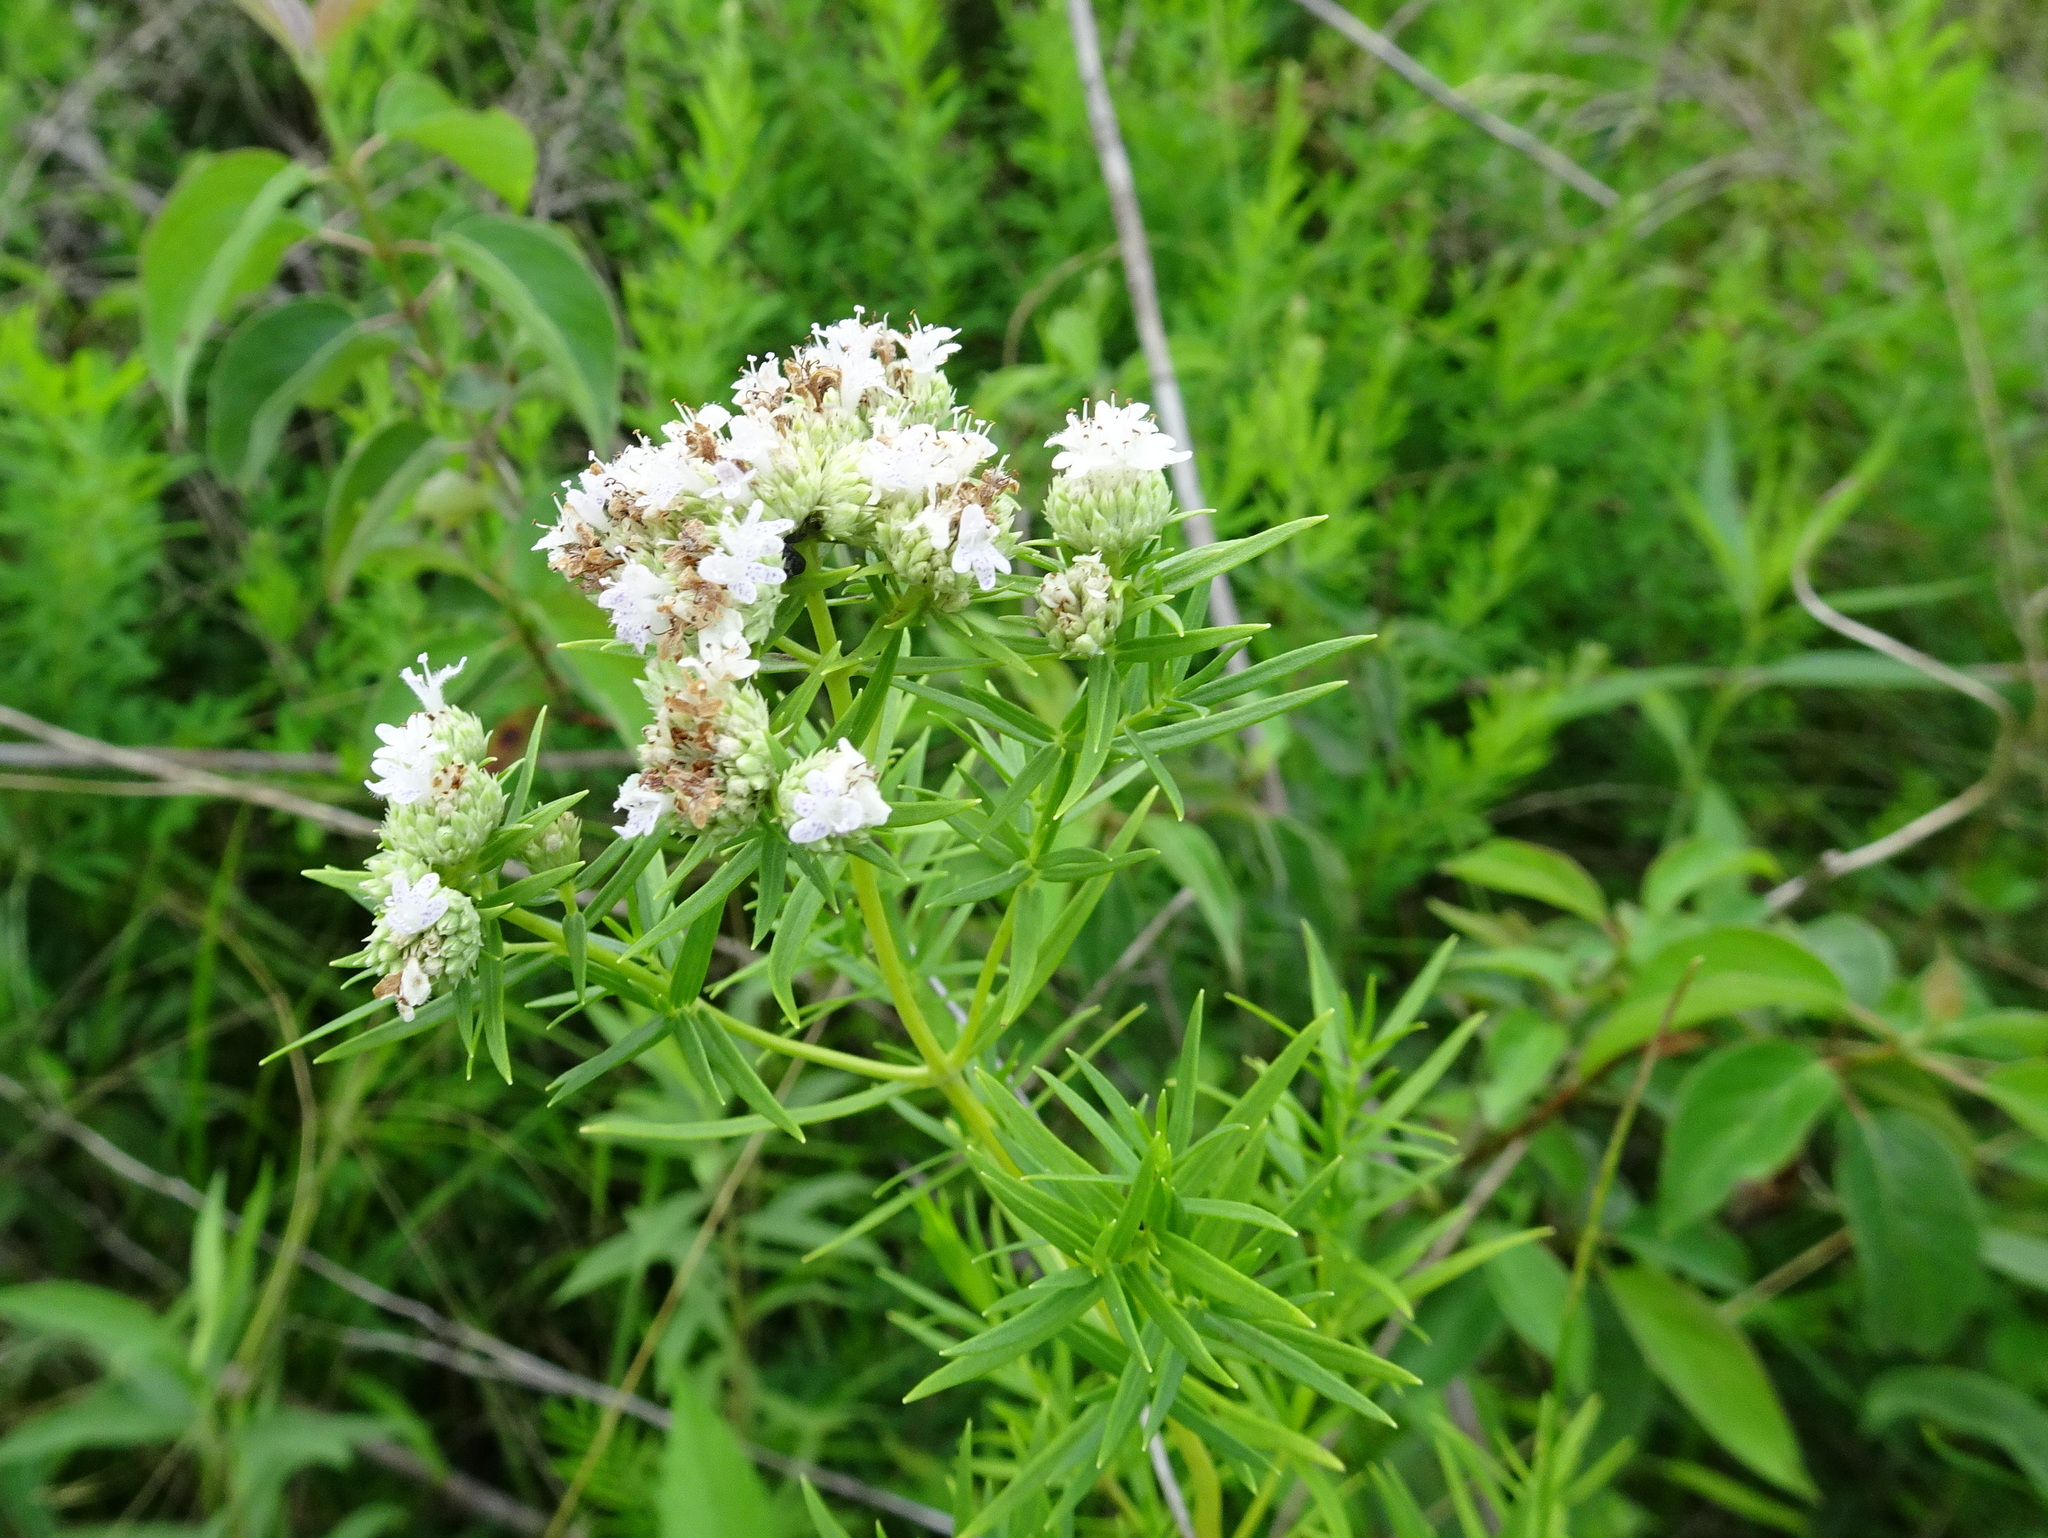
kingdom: Plantae
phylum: Tracheophyta
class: Magnoliopsida
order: Lamiales
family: Lamiaceae
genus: Pycnanthemum
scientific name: Pycnanthemum tenuifolium
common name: Narrow-leaf mountain-mint
